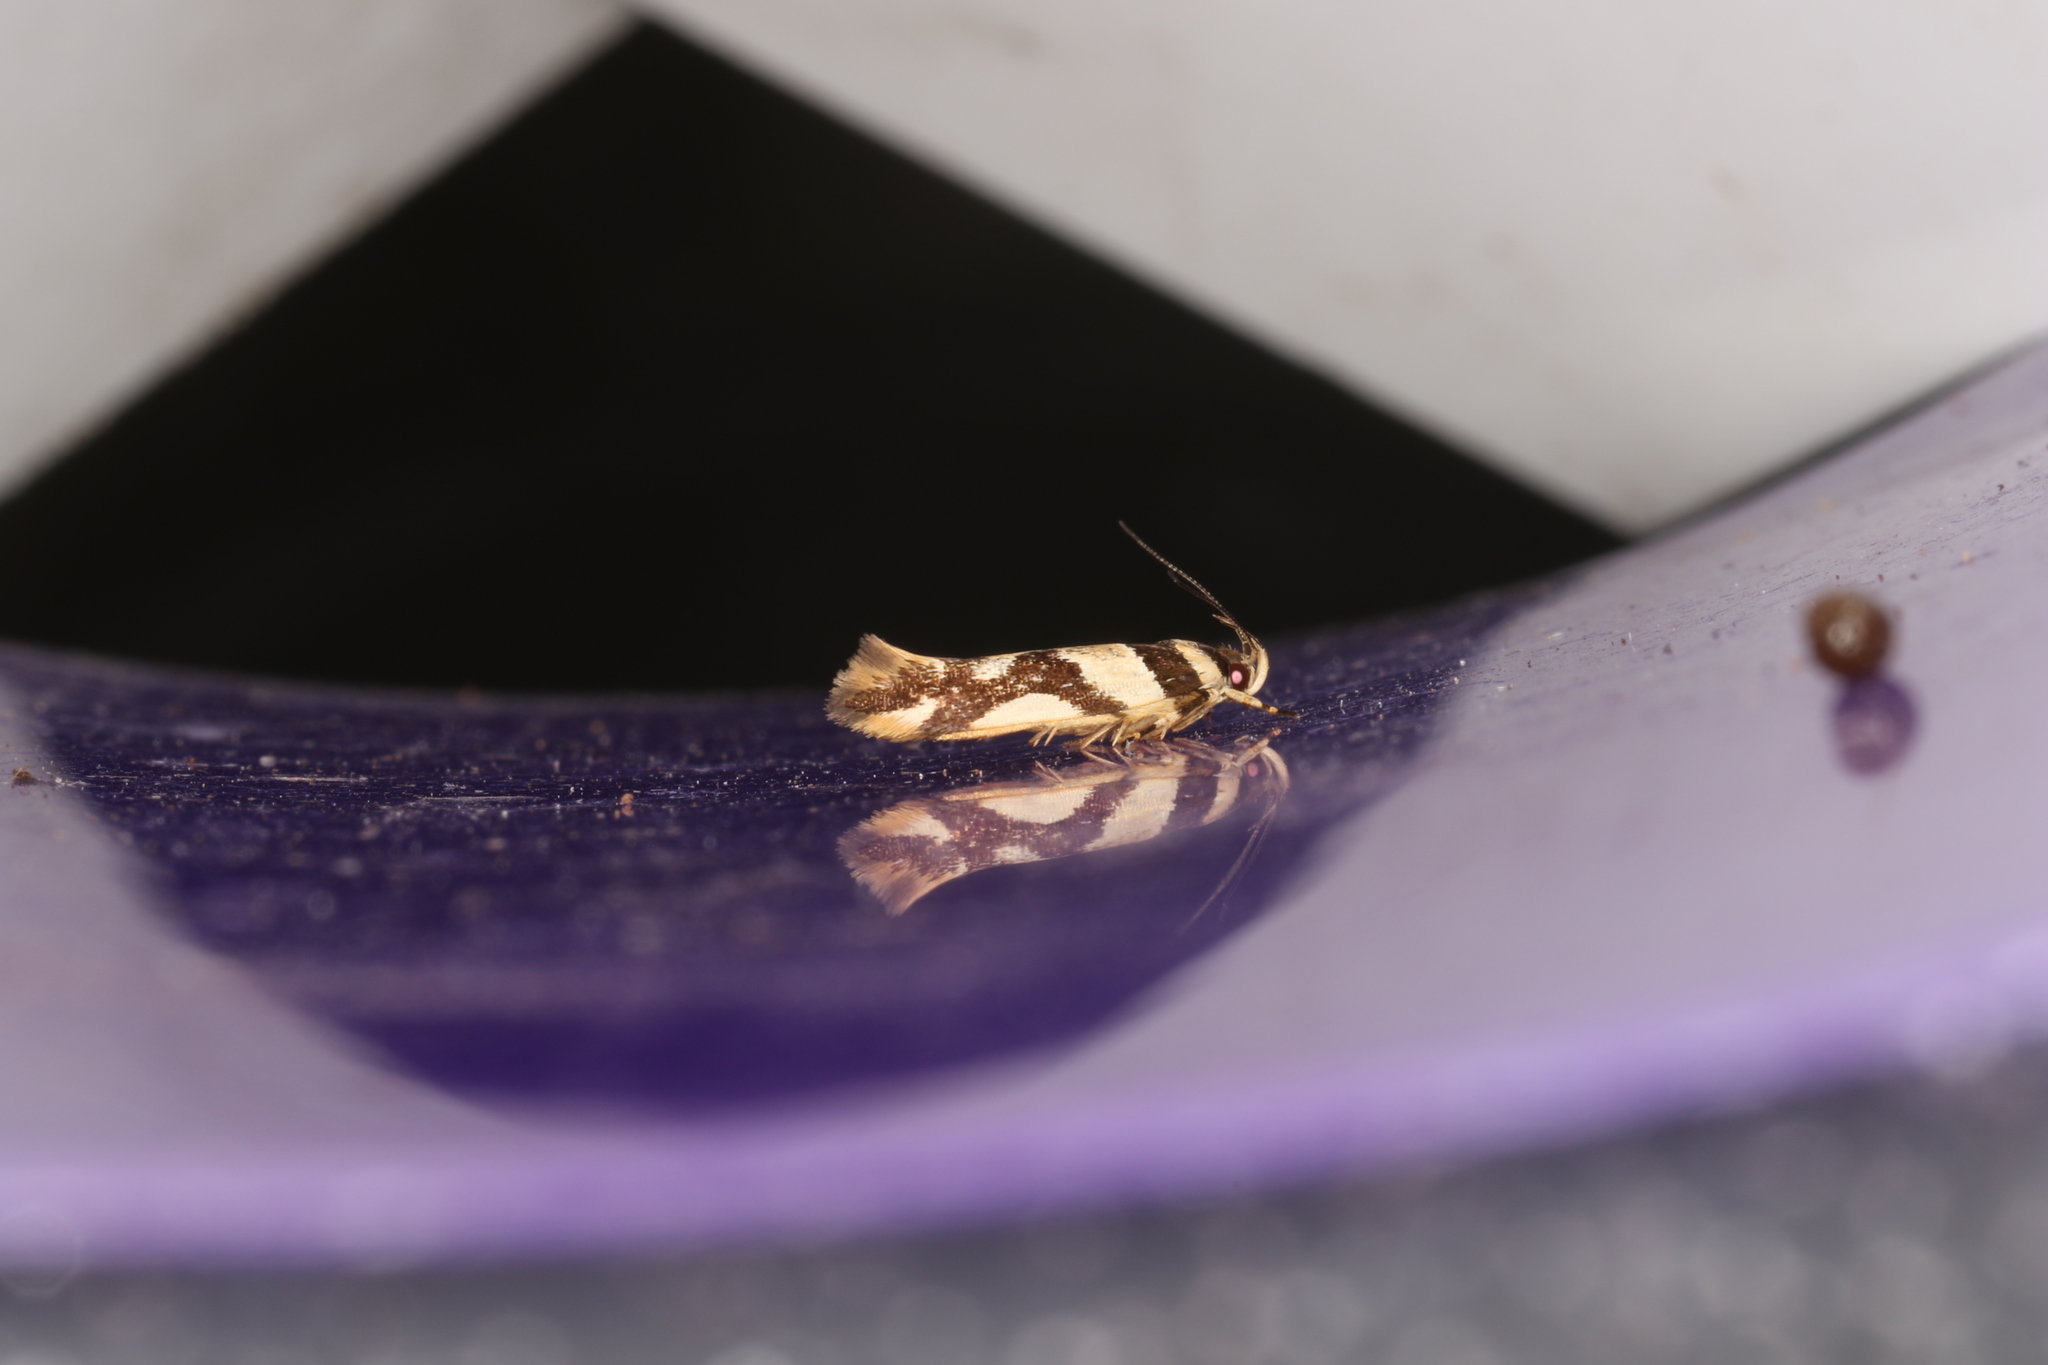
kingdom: Animalia
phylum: Arthropoda
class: Insecta
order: Lepidoptera
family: Cosmopterigidae
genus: Macrobathra
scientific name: Macrobathra desmotoma
